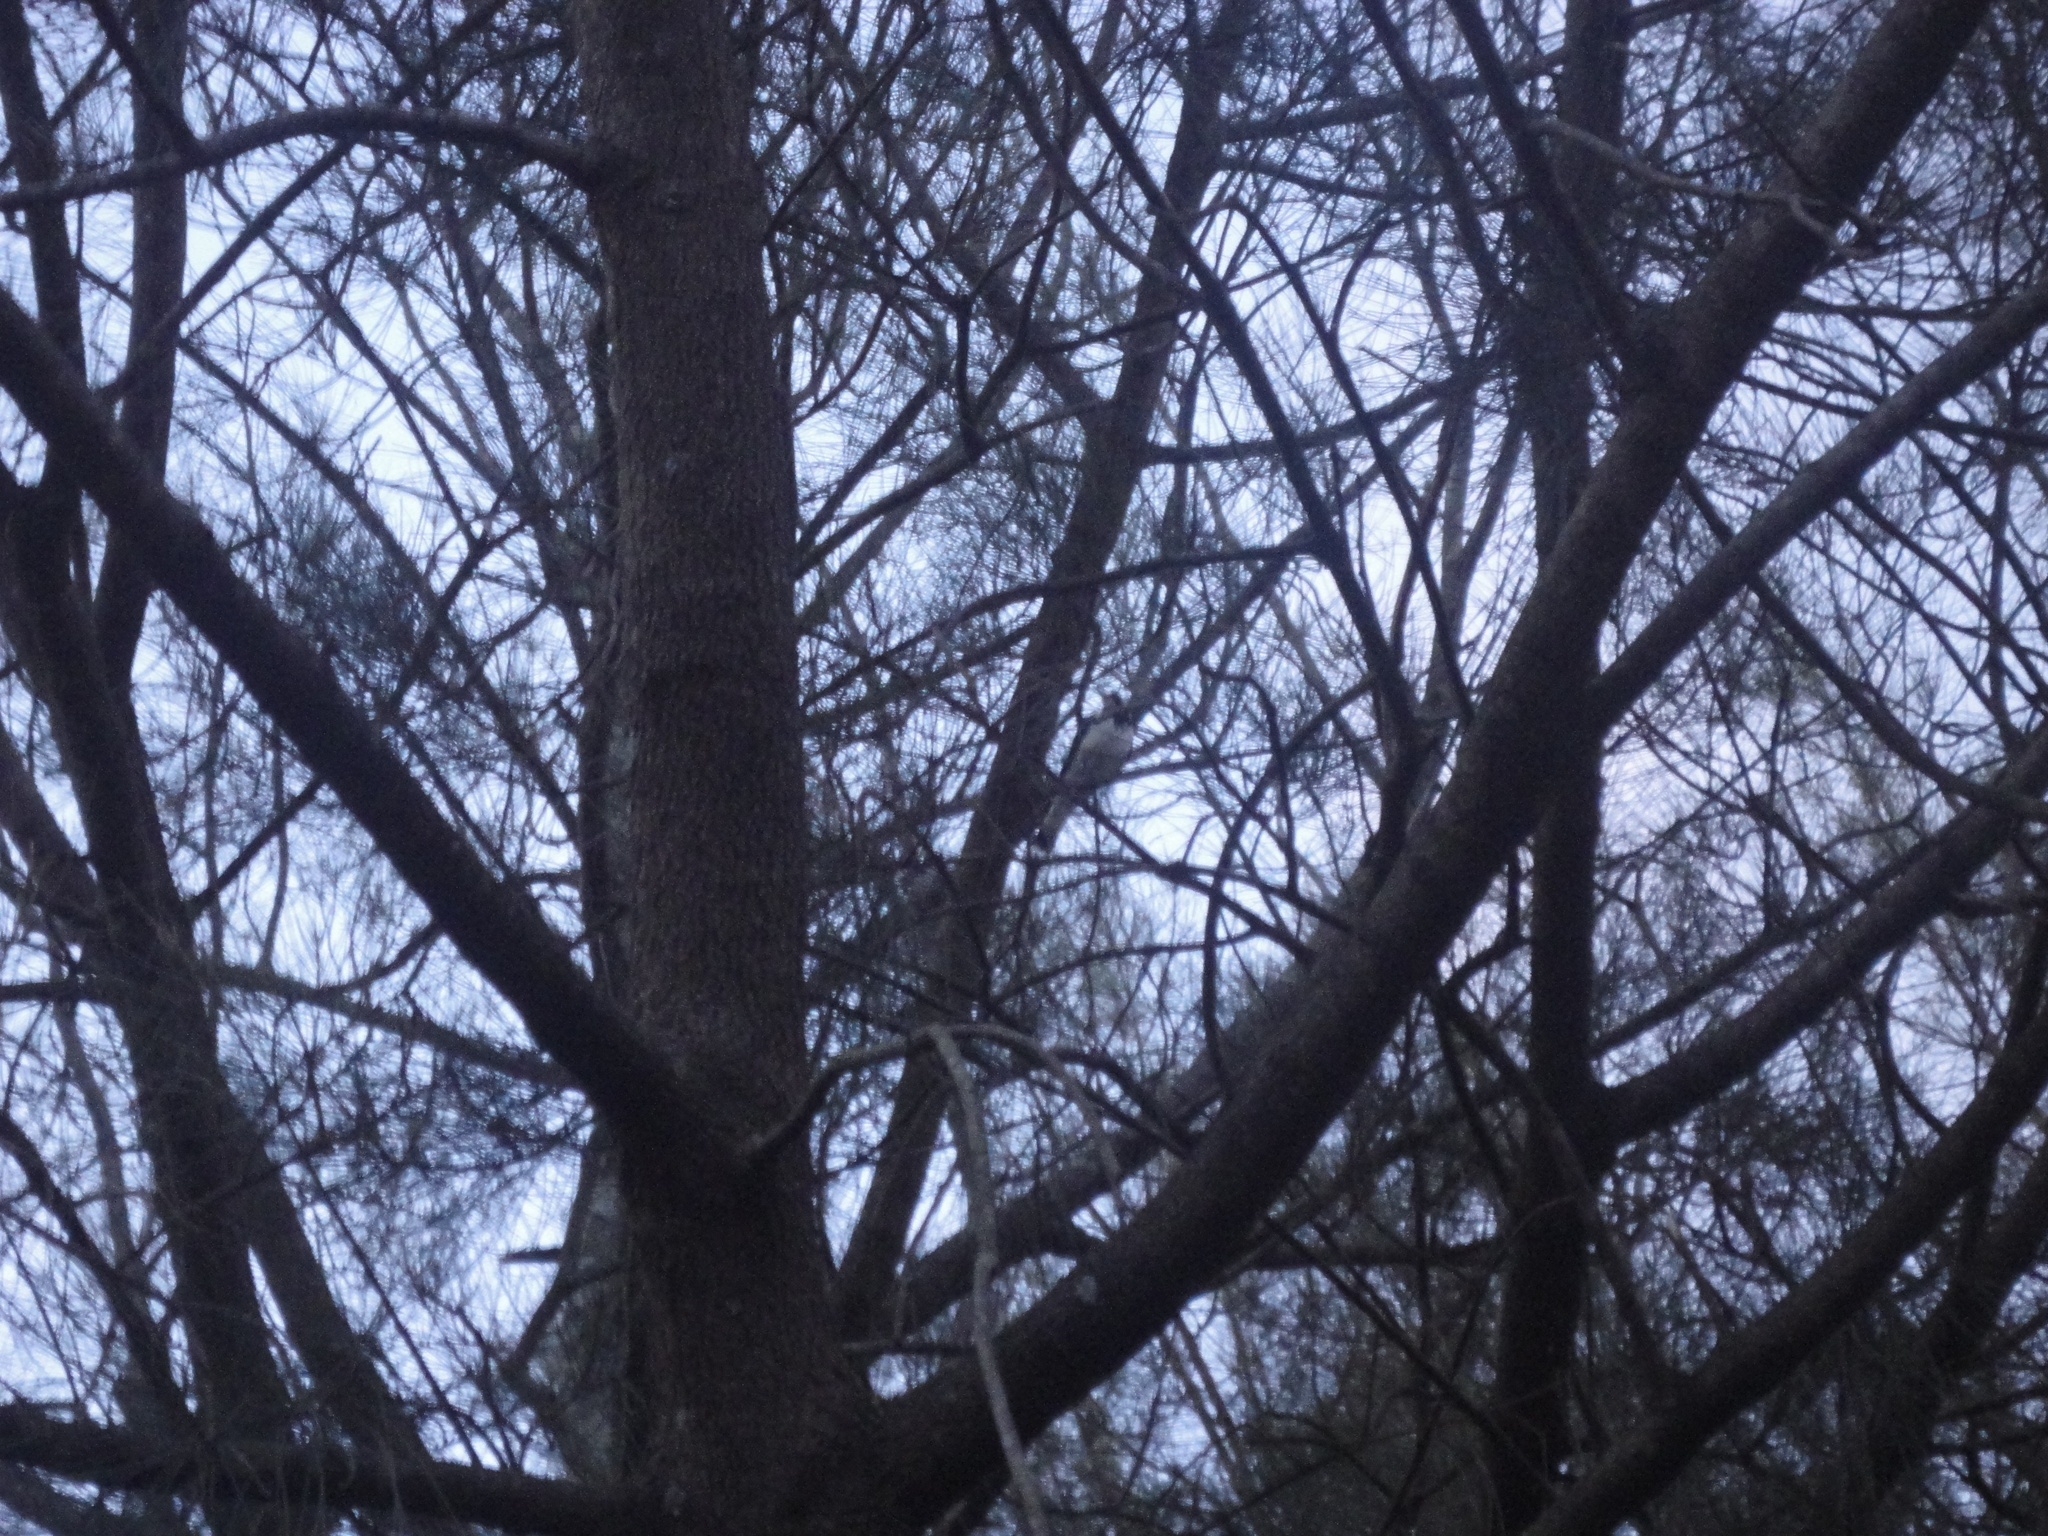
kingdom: Animalia
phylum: Chordata
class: Aves
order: Passeriformes
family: Monarchidae
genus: Grallina
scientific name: Grallina cyanoleuca
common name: Magpie-lark
